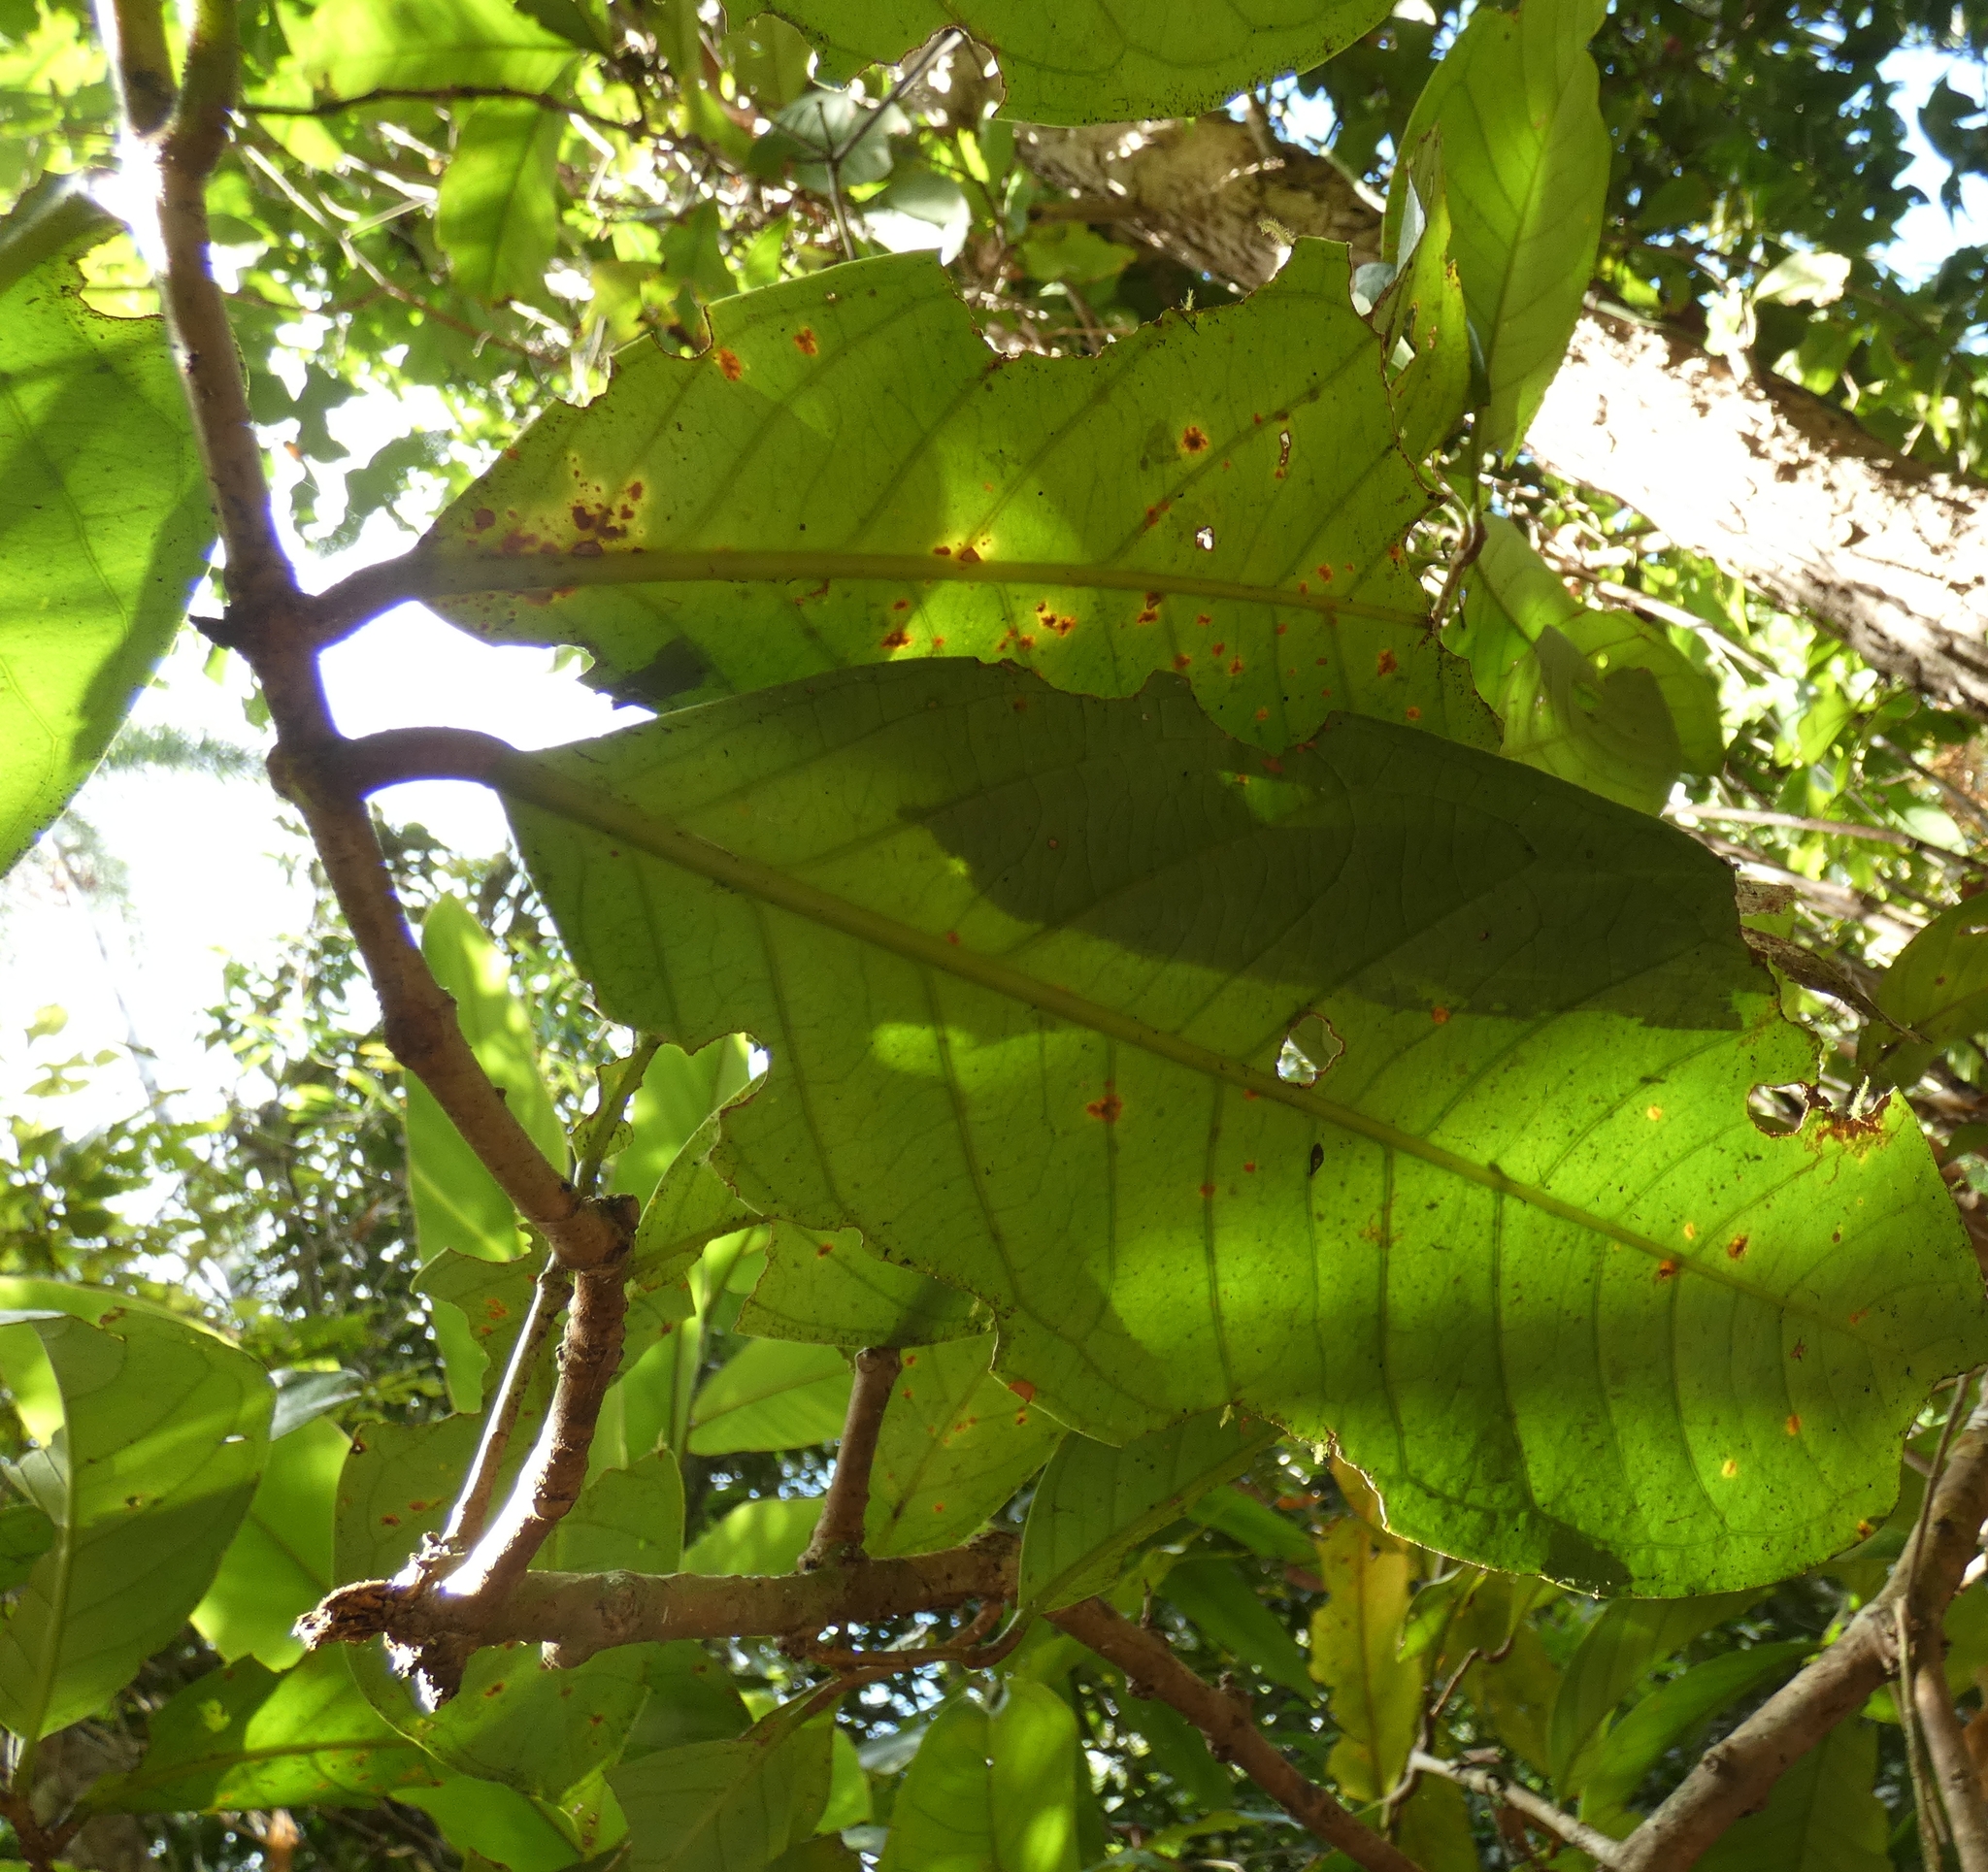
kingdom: Plantae
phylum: Tracheophyta
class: Magnoliopsida
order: Myrtales
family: Myrtaceae
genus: Syzygium
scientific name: Syzygium malaccense
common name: Malaysian apple
